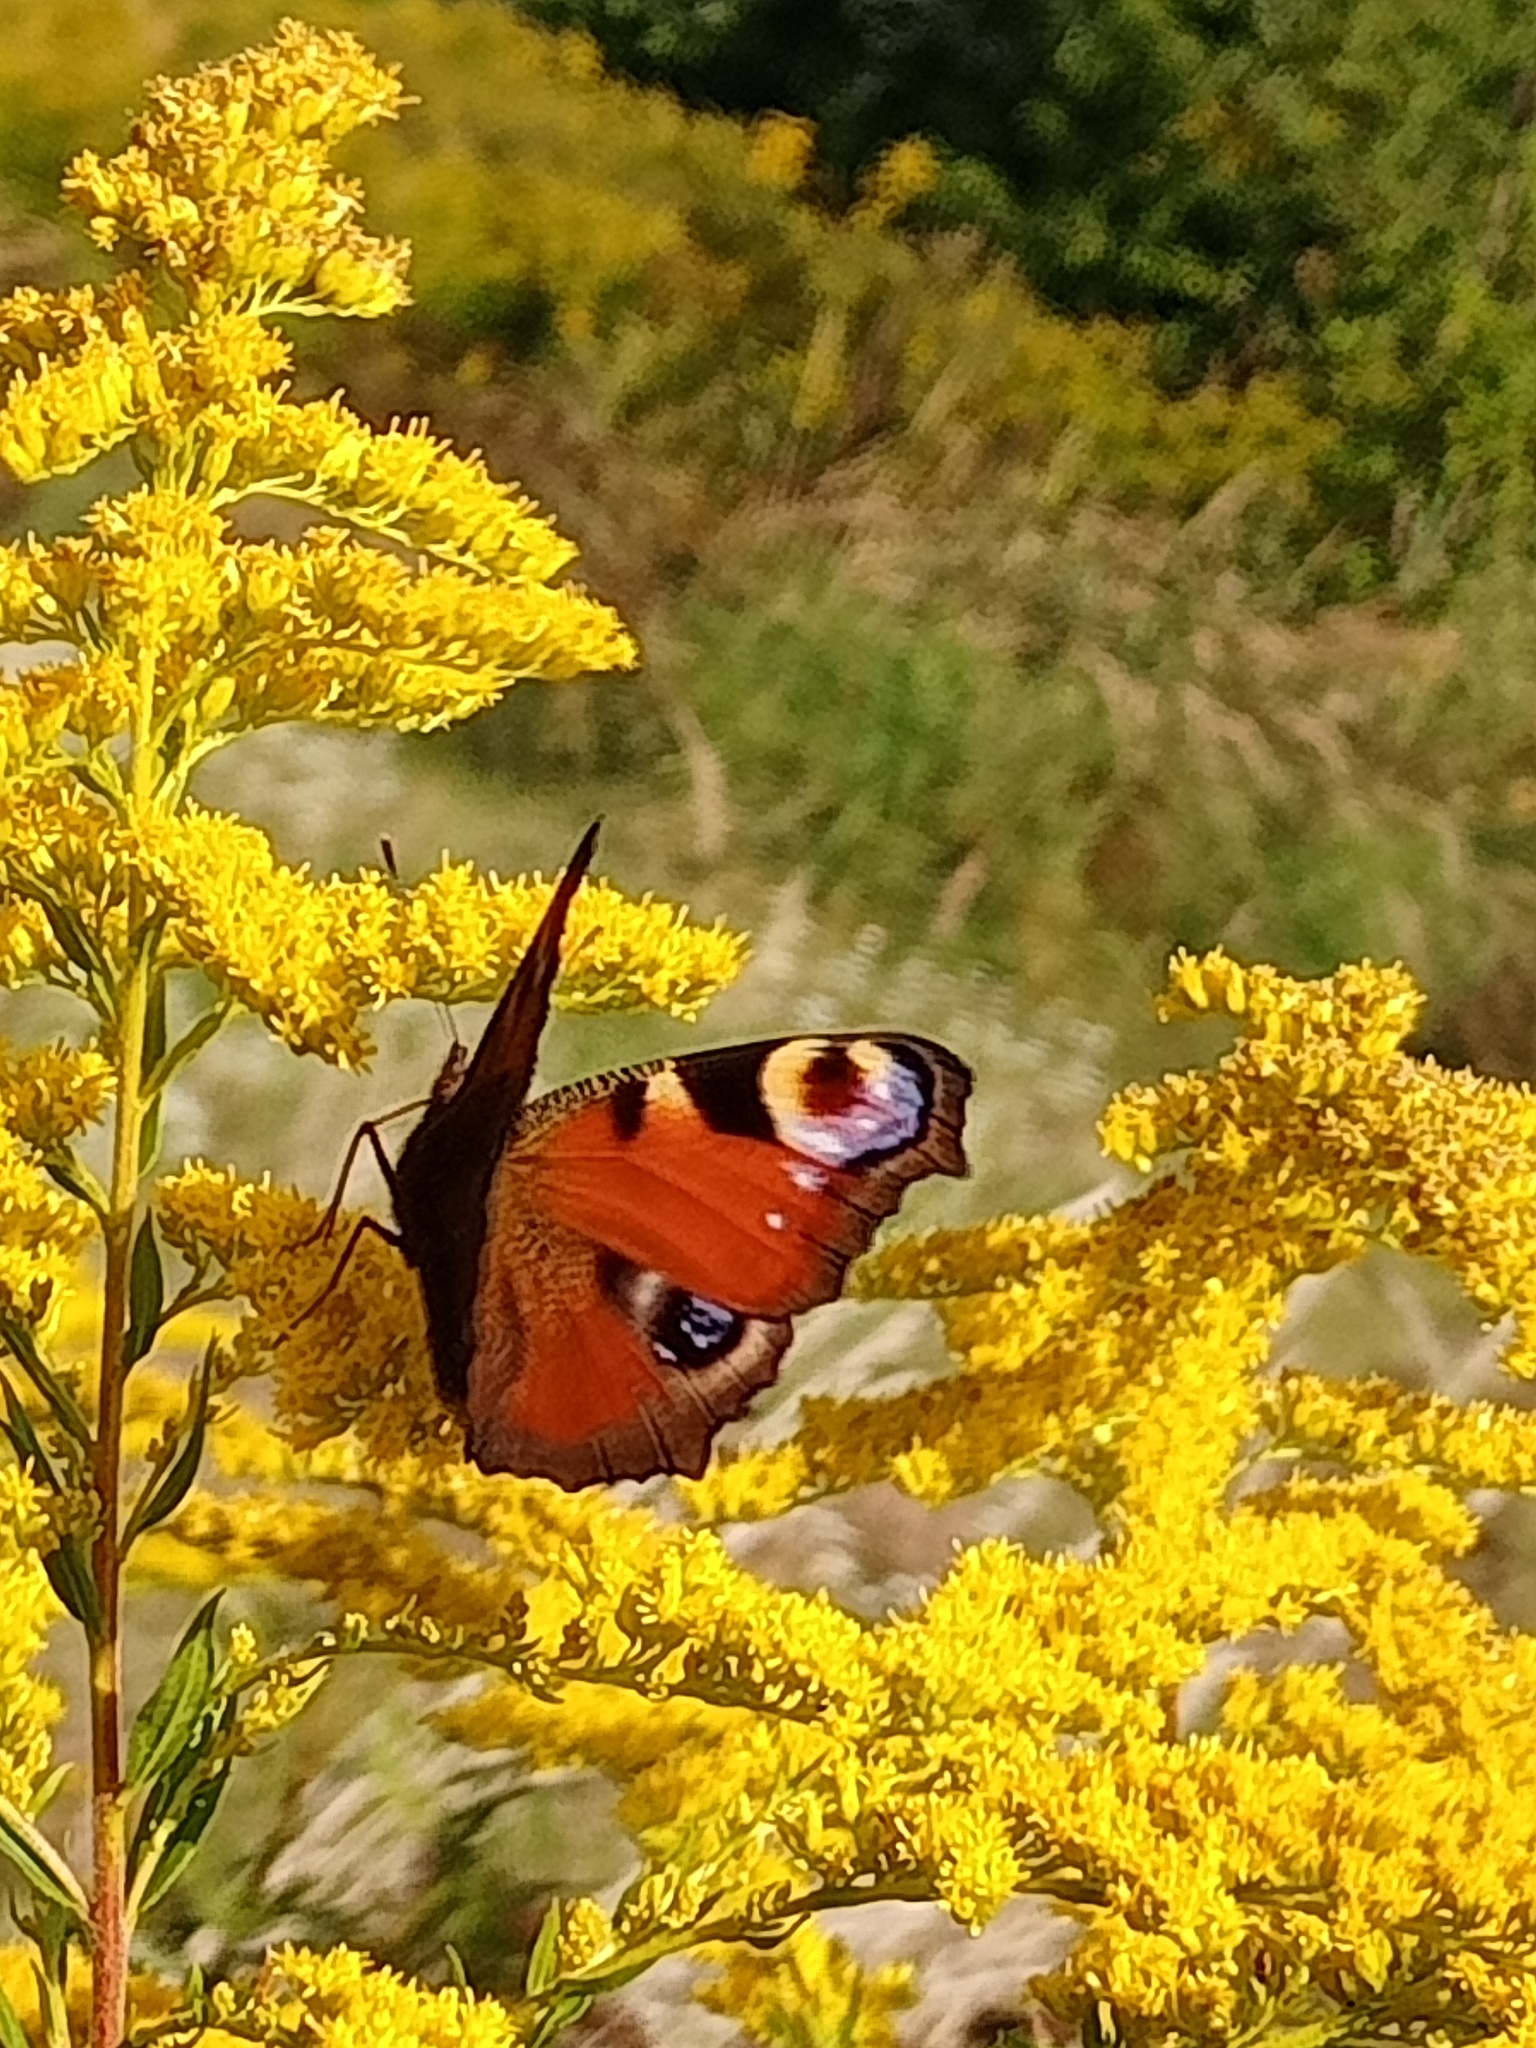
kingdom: Animalia
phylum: Arthropoda
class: Insecta
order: Lepidoptera
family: Nymphalidae
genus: Aglais
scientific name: Aglais io
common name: Peacock
